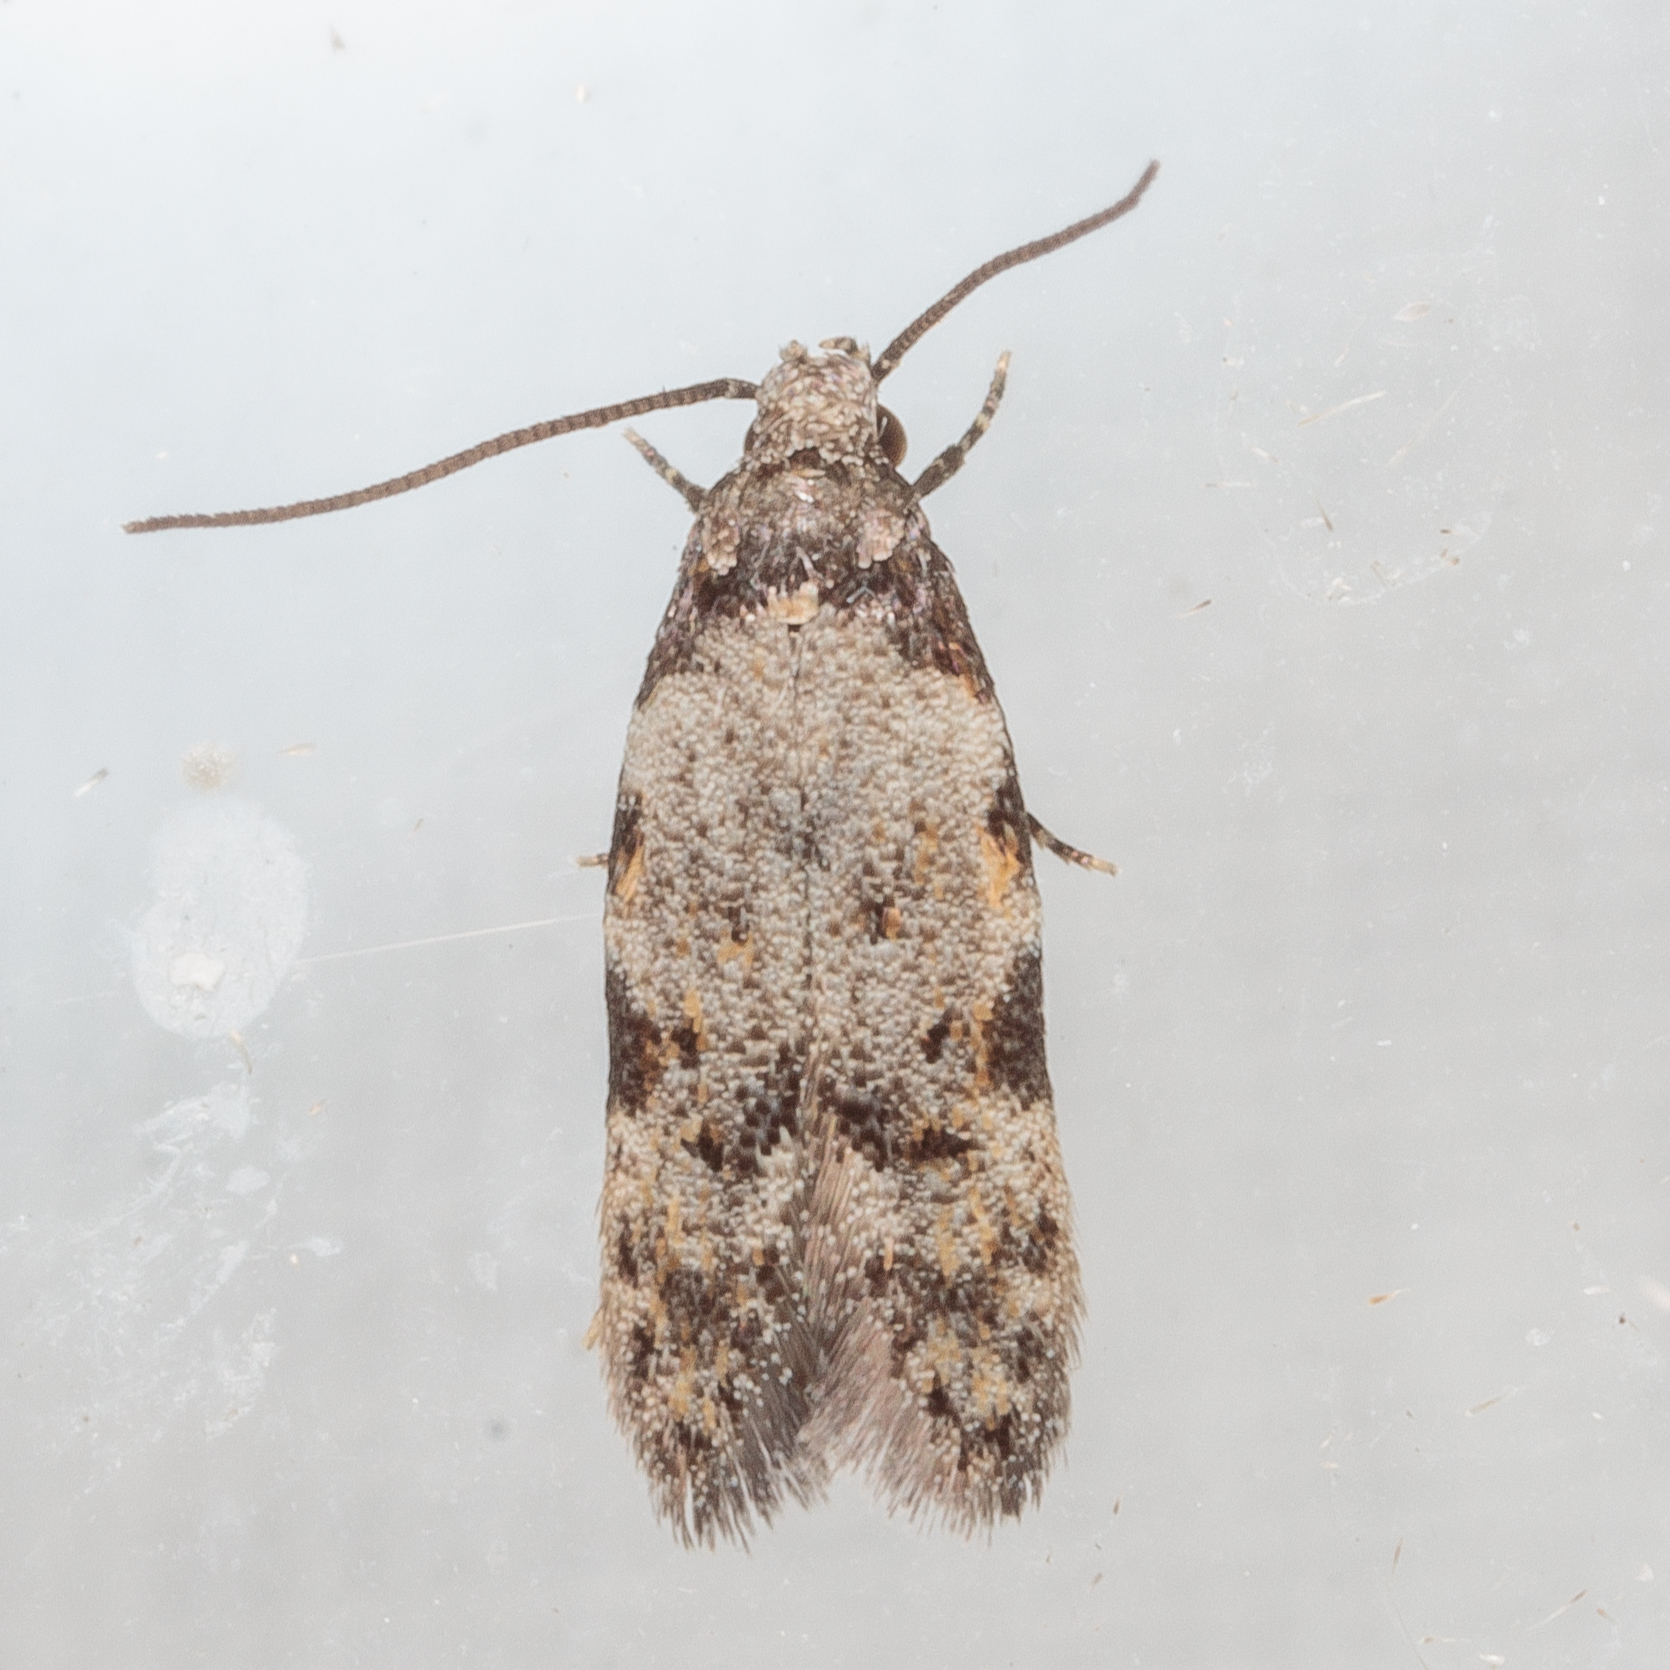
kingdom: Animalia
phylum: Arthropoda
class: Insecta
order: Lepidoptera
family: Autostichidae
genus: Taygete
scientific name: Taygete attributella
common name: Triangle-marked twirler moth
